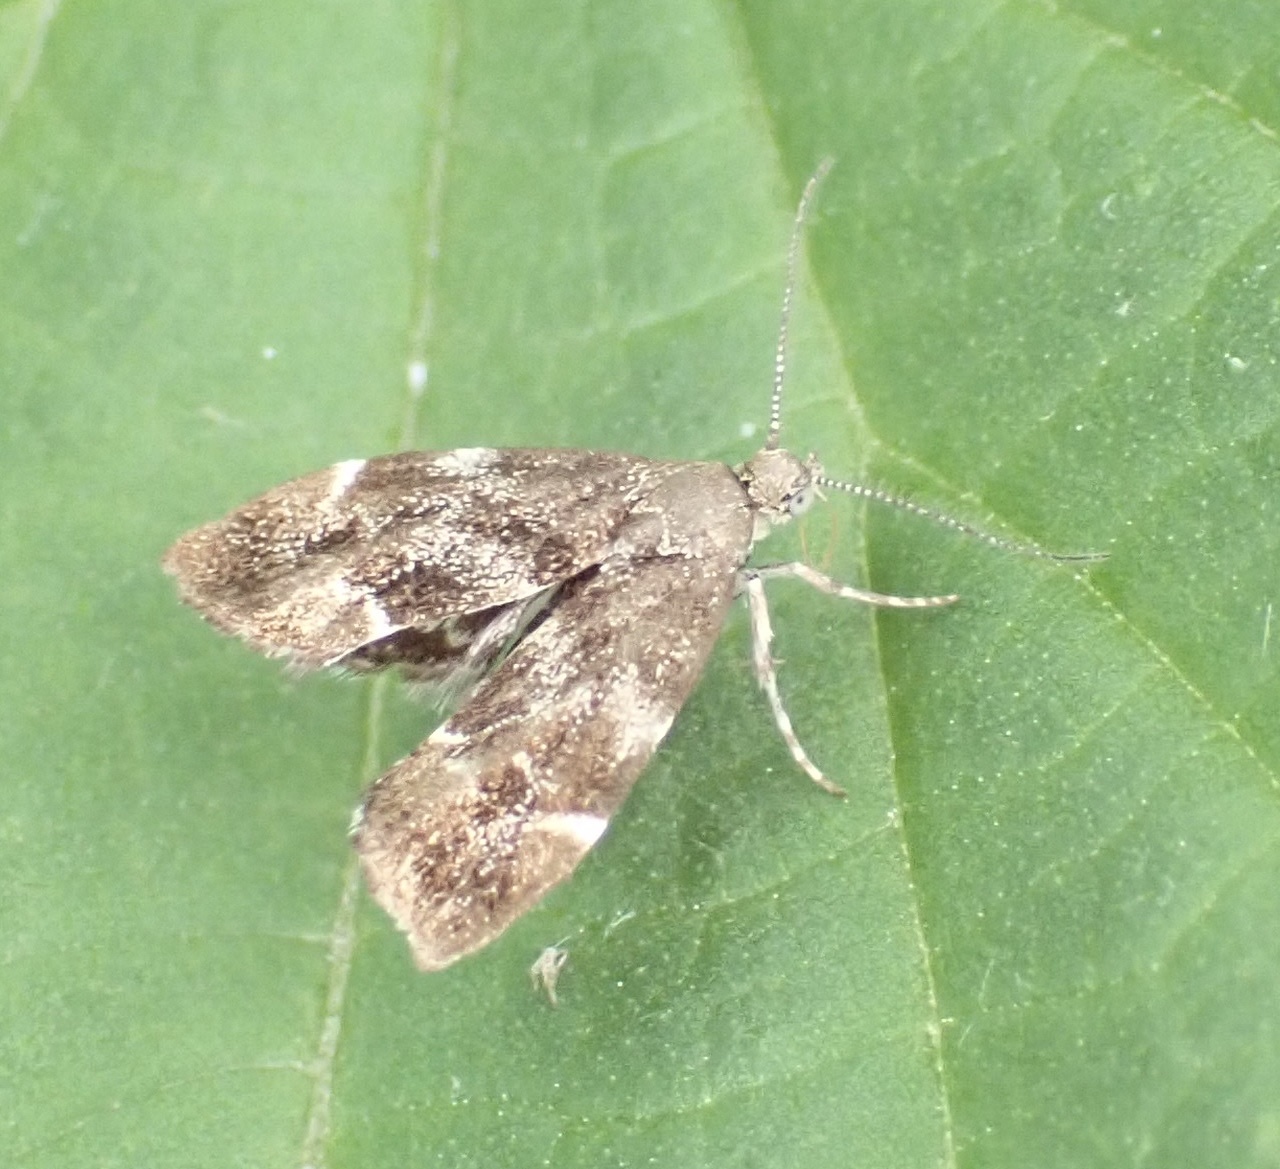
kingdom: Animalia
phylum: Arthropoda
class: Insecta
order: Lepidoptera
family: Choreutidae
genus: Anthophila
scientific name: Anthophila fabriciana
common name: Nettle-tap
